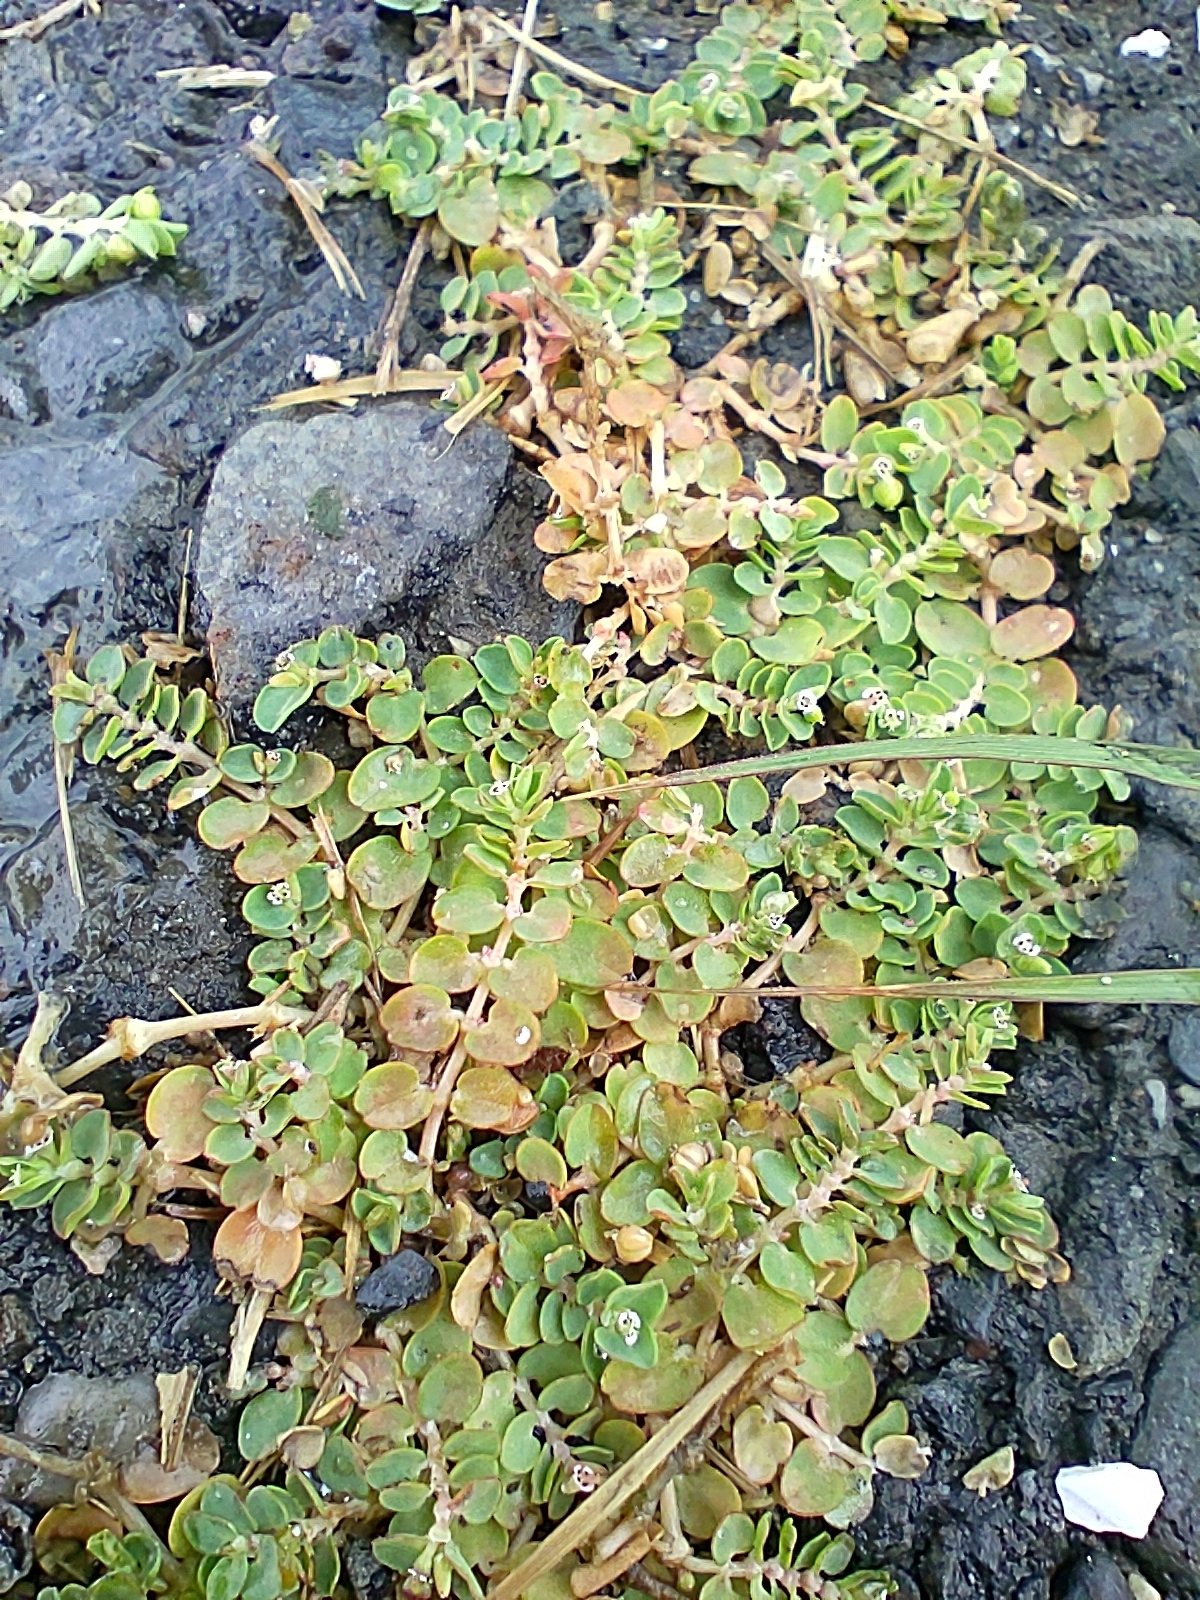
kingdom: Plantae
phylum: Tracheophyta
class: Magnoliopsida
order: Malpighiales
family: Euphorbiaceae
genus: Euphorbia
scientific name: Euphorbia serpens
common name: Matted sandmat
